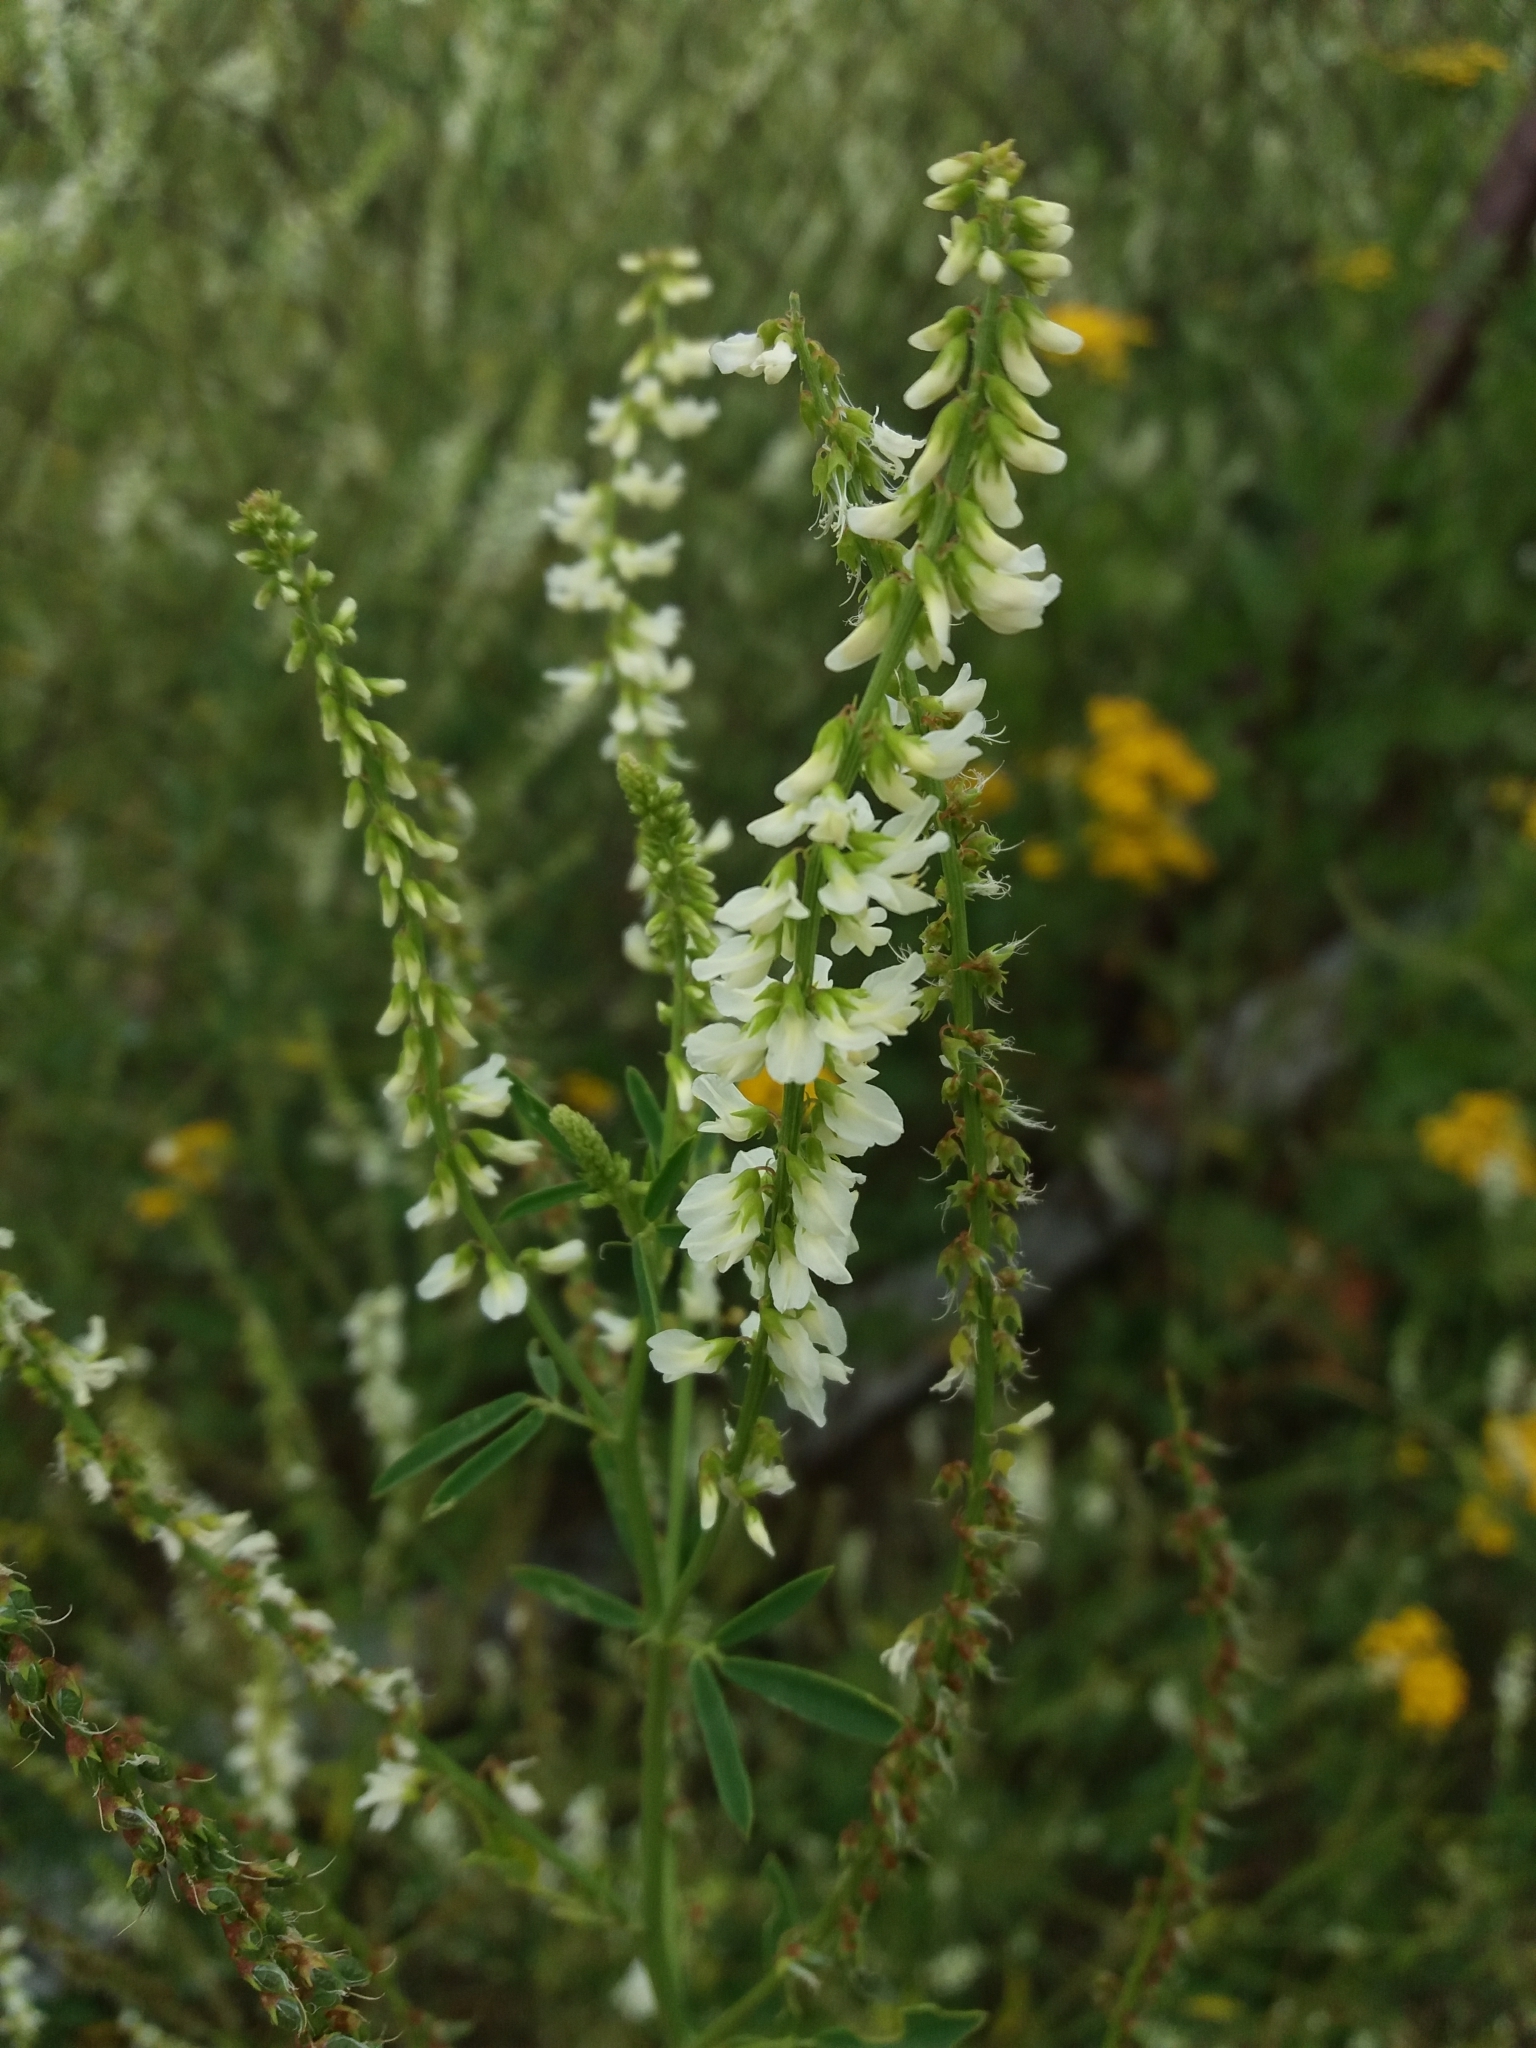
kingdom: Plantae
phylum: Tracheophyta
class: Magnoliopsida
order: Fabales
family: Fabaceae
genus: Melilotus
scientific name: Melilotus albus
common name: White melilot
